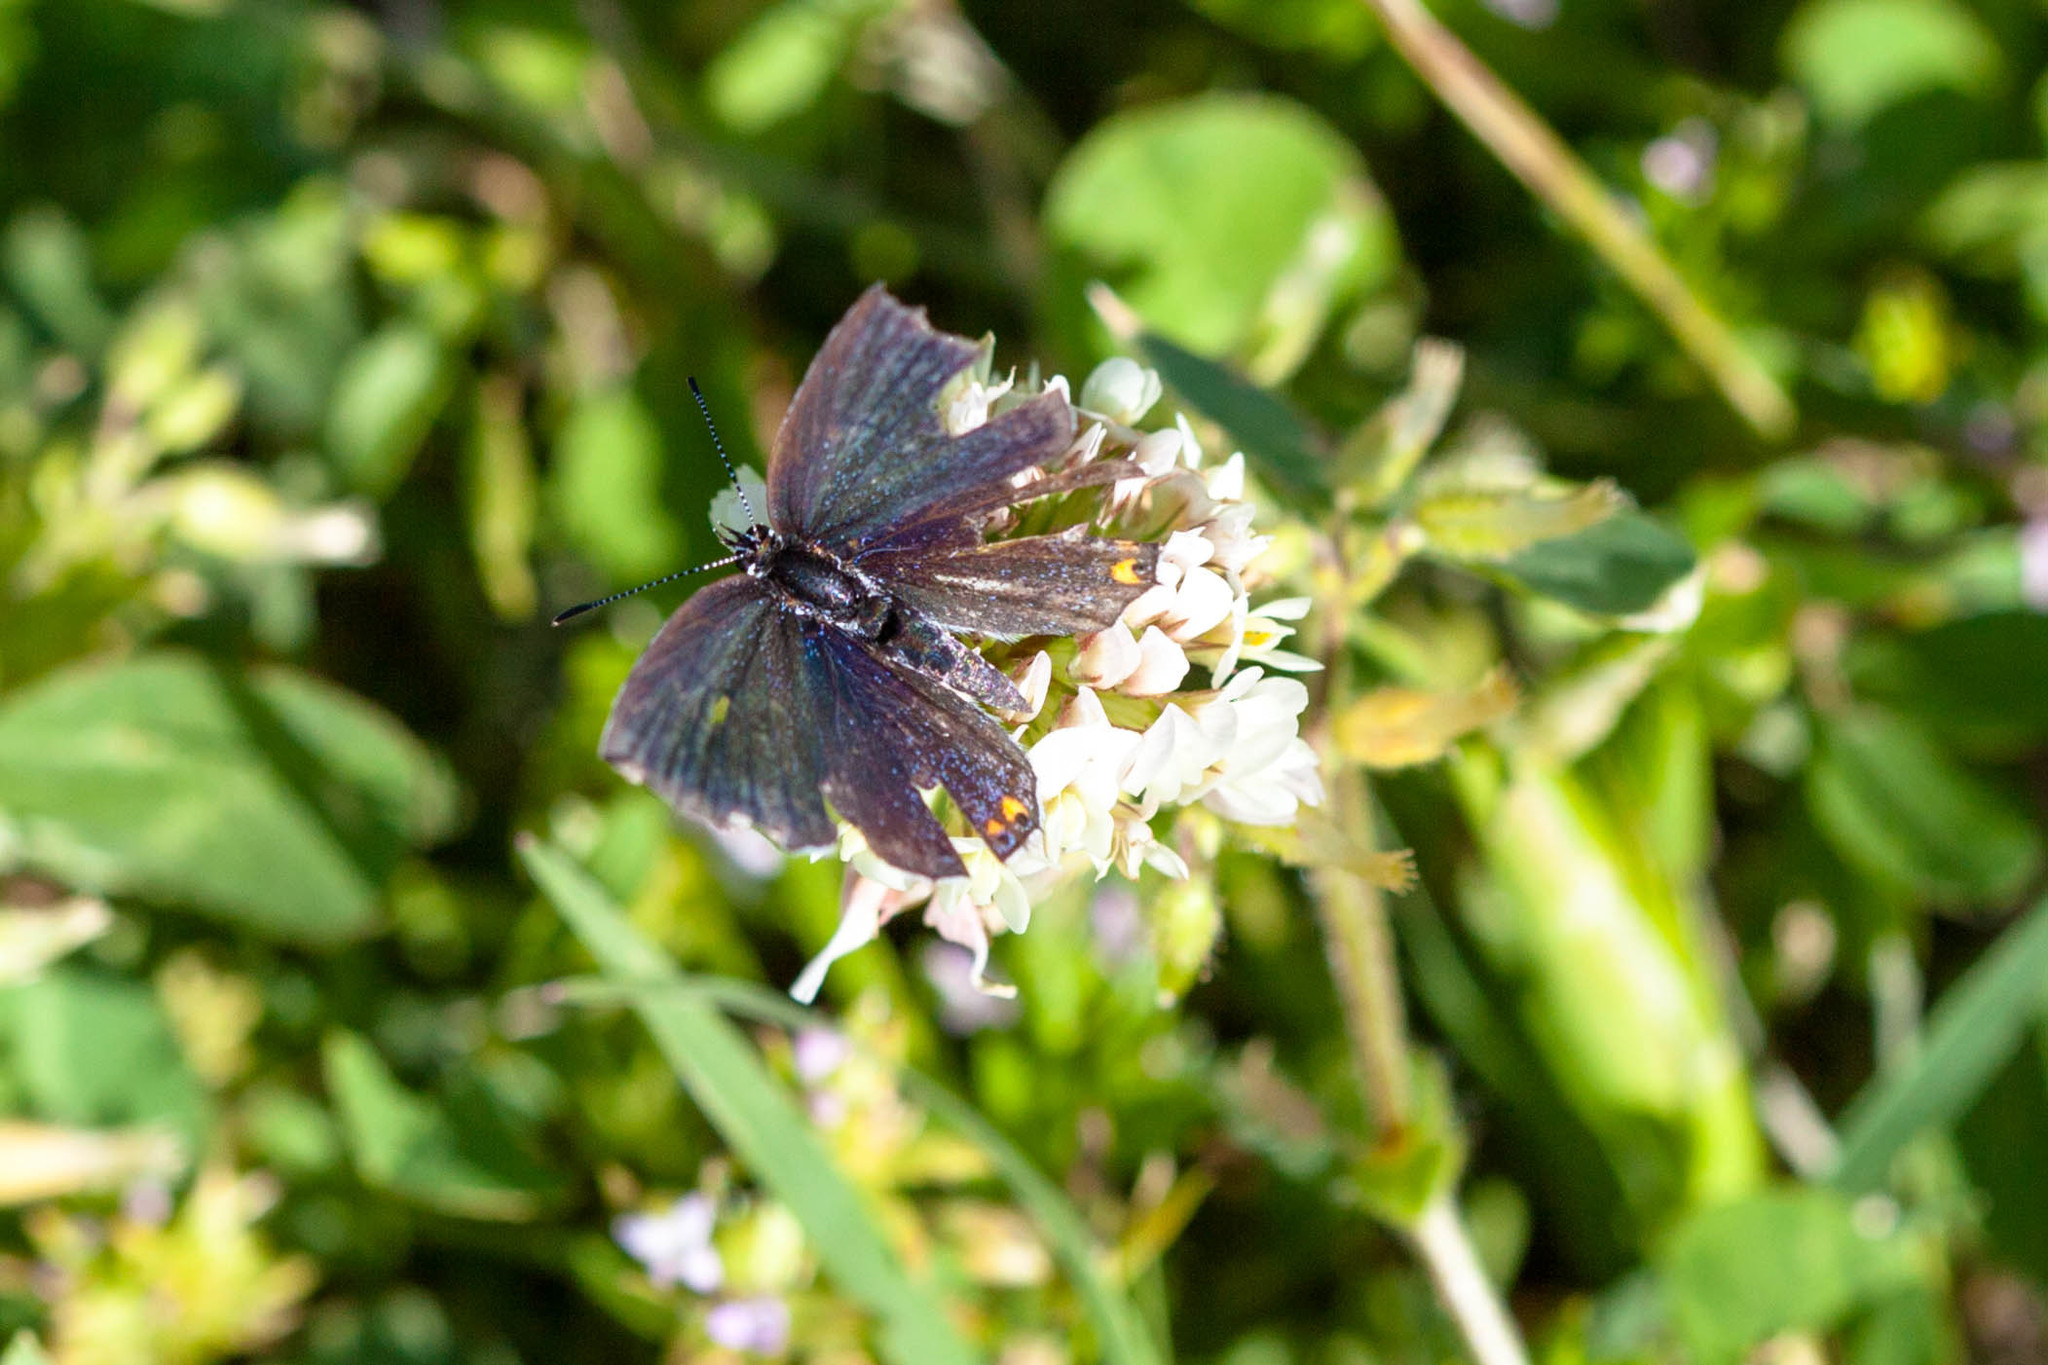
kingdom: Animalia
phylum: Arthropoda
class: Insecta
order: Lepidoptera
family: Lycaenidae
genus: Elkalyce
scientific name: Elkalyce comyntas
